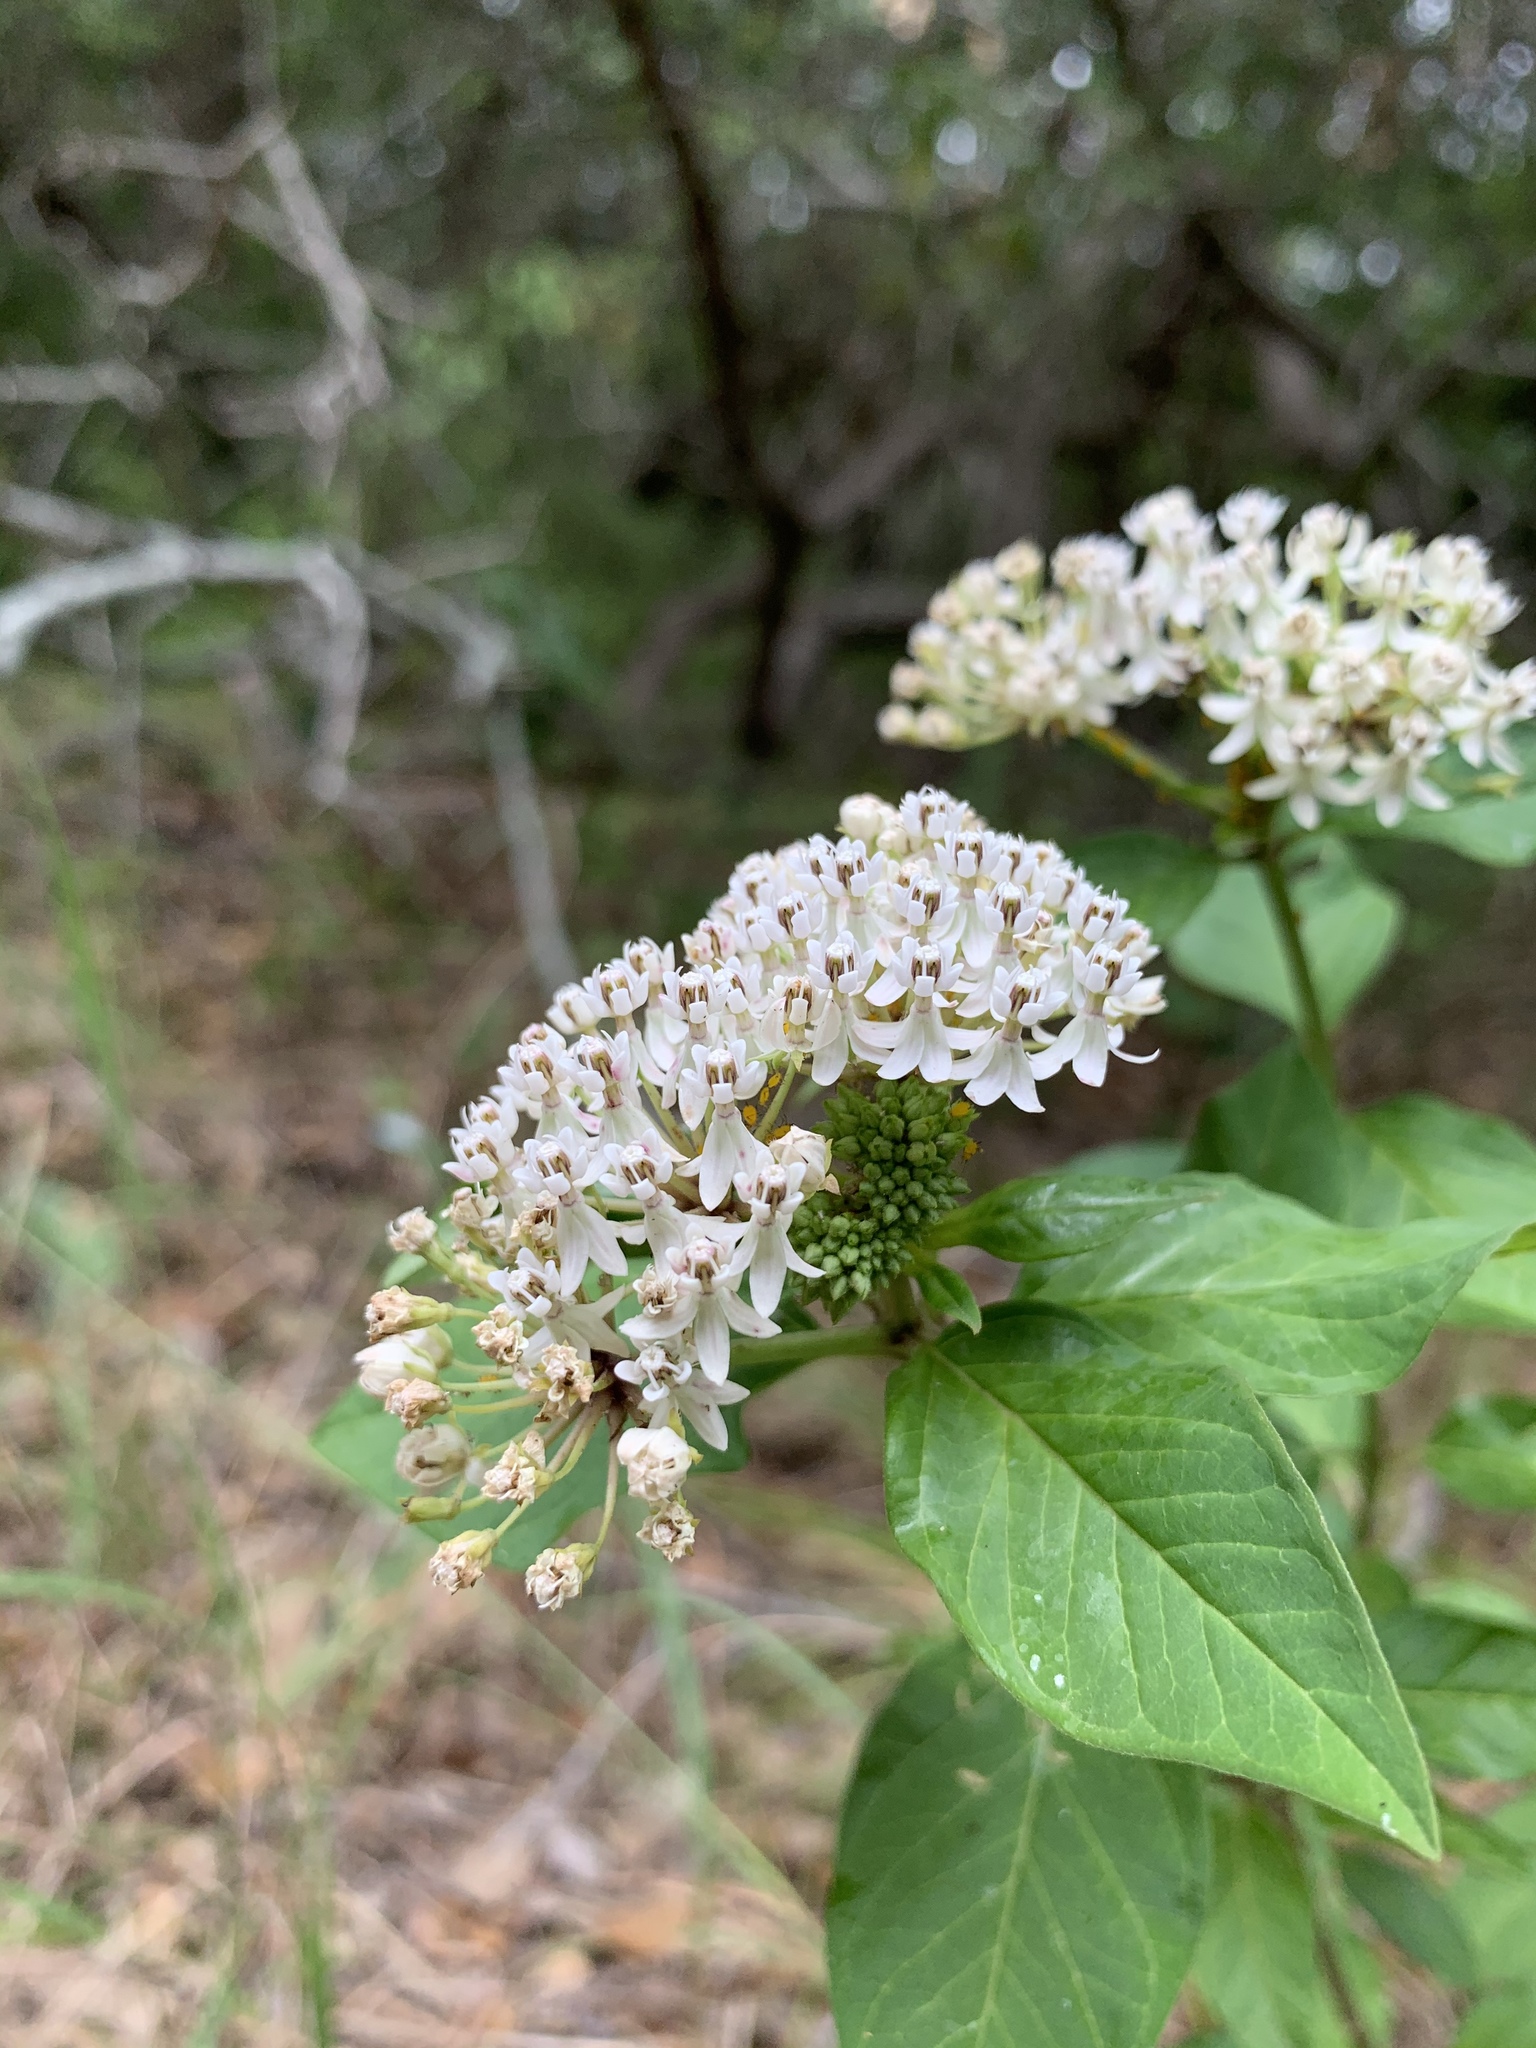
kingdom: Plantae
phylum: Tracheophyta
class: Magnoliopsida
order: Gentianales
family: Apocynaceae
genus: Asclepias
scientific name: Asclepias texana
